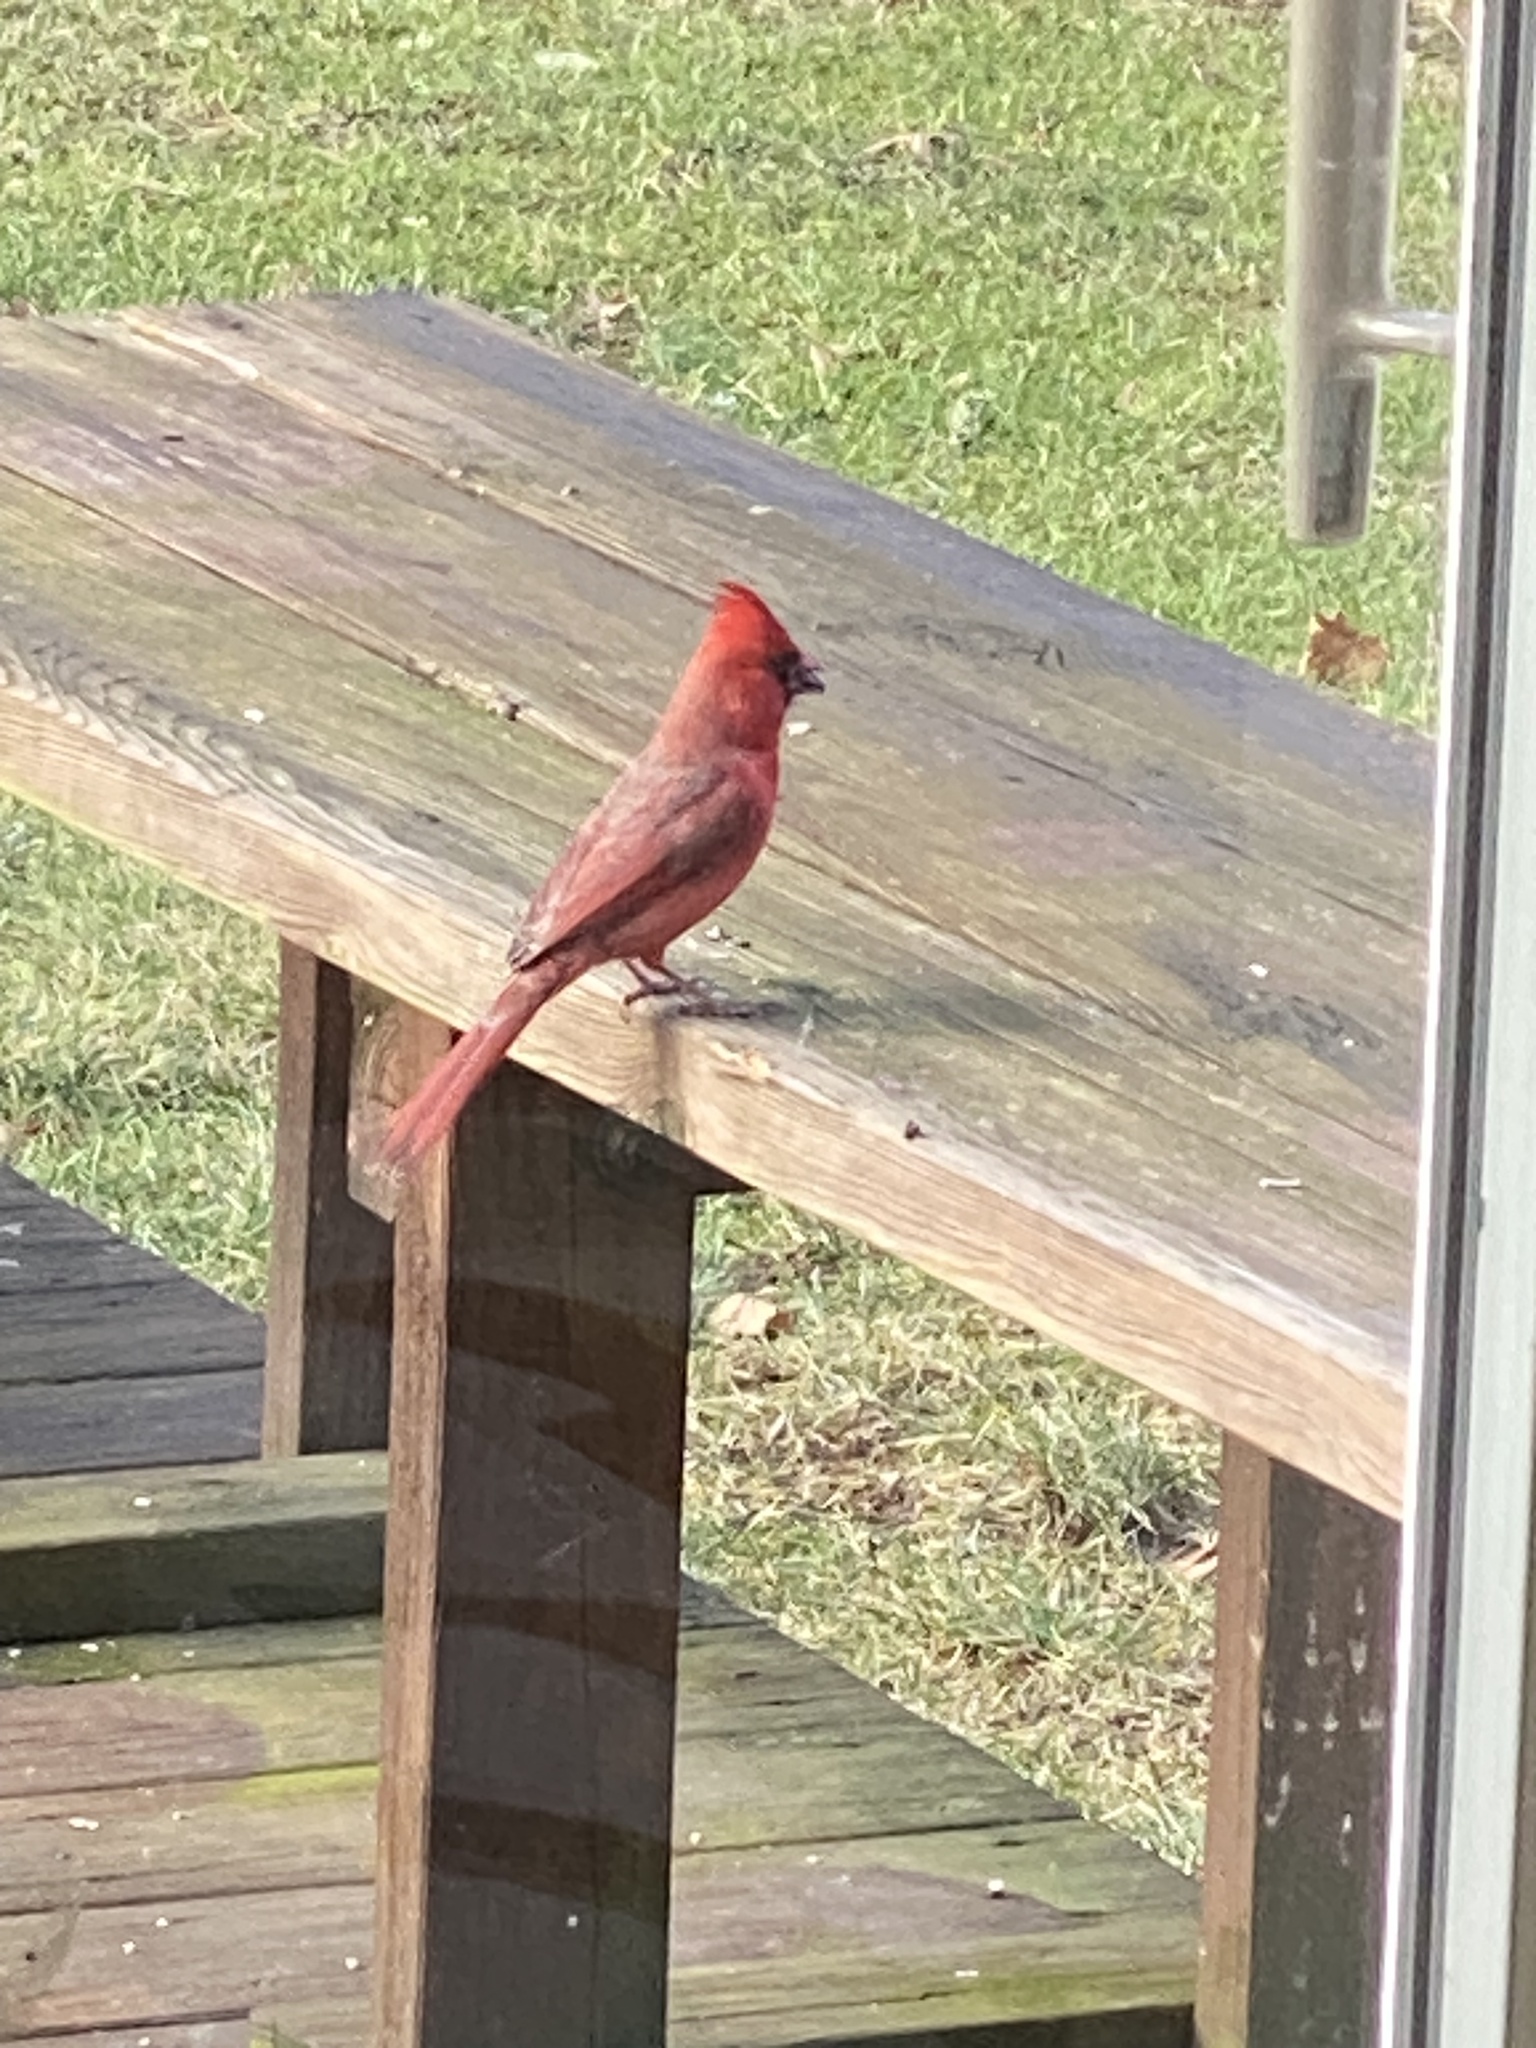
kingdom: Animalia
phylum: Chordata
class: Aves
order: Passeriformes
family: Cardinalidae
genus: Cardinalis
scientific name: Cardinalis cardinalis
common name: Northern cardinal
